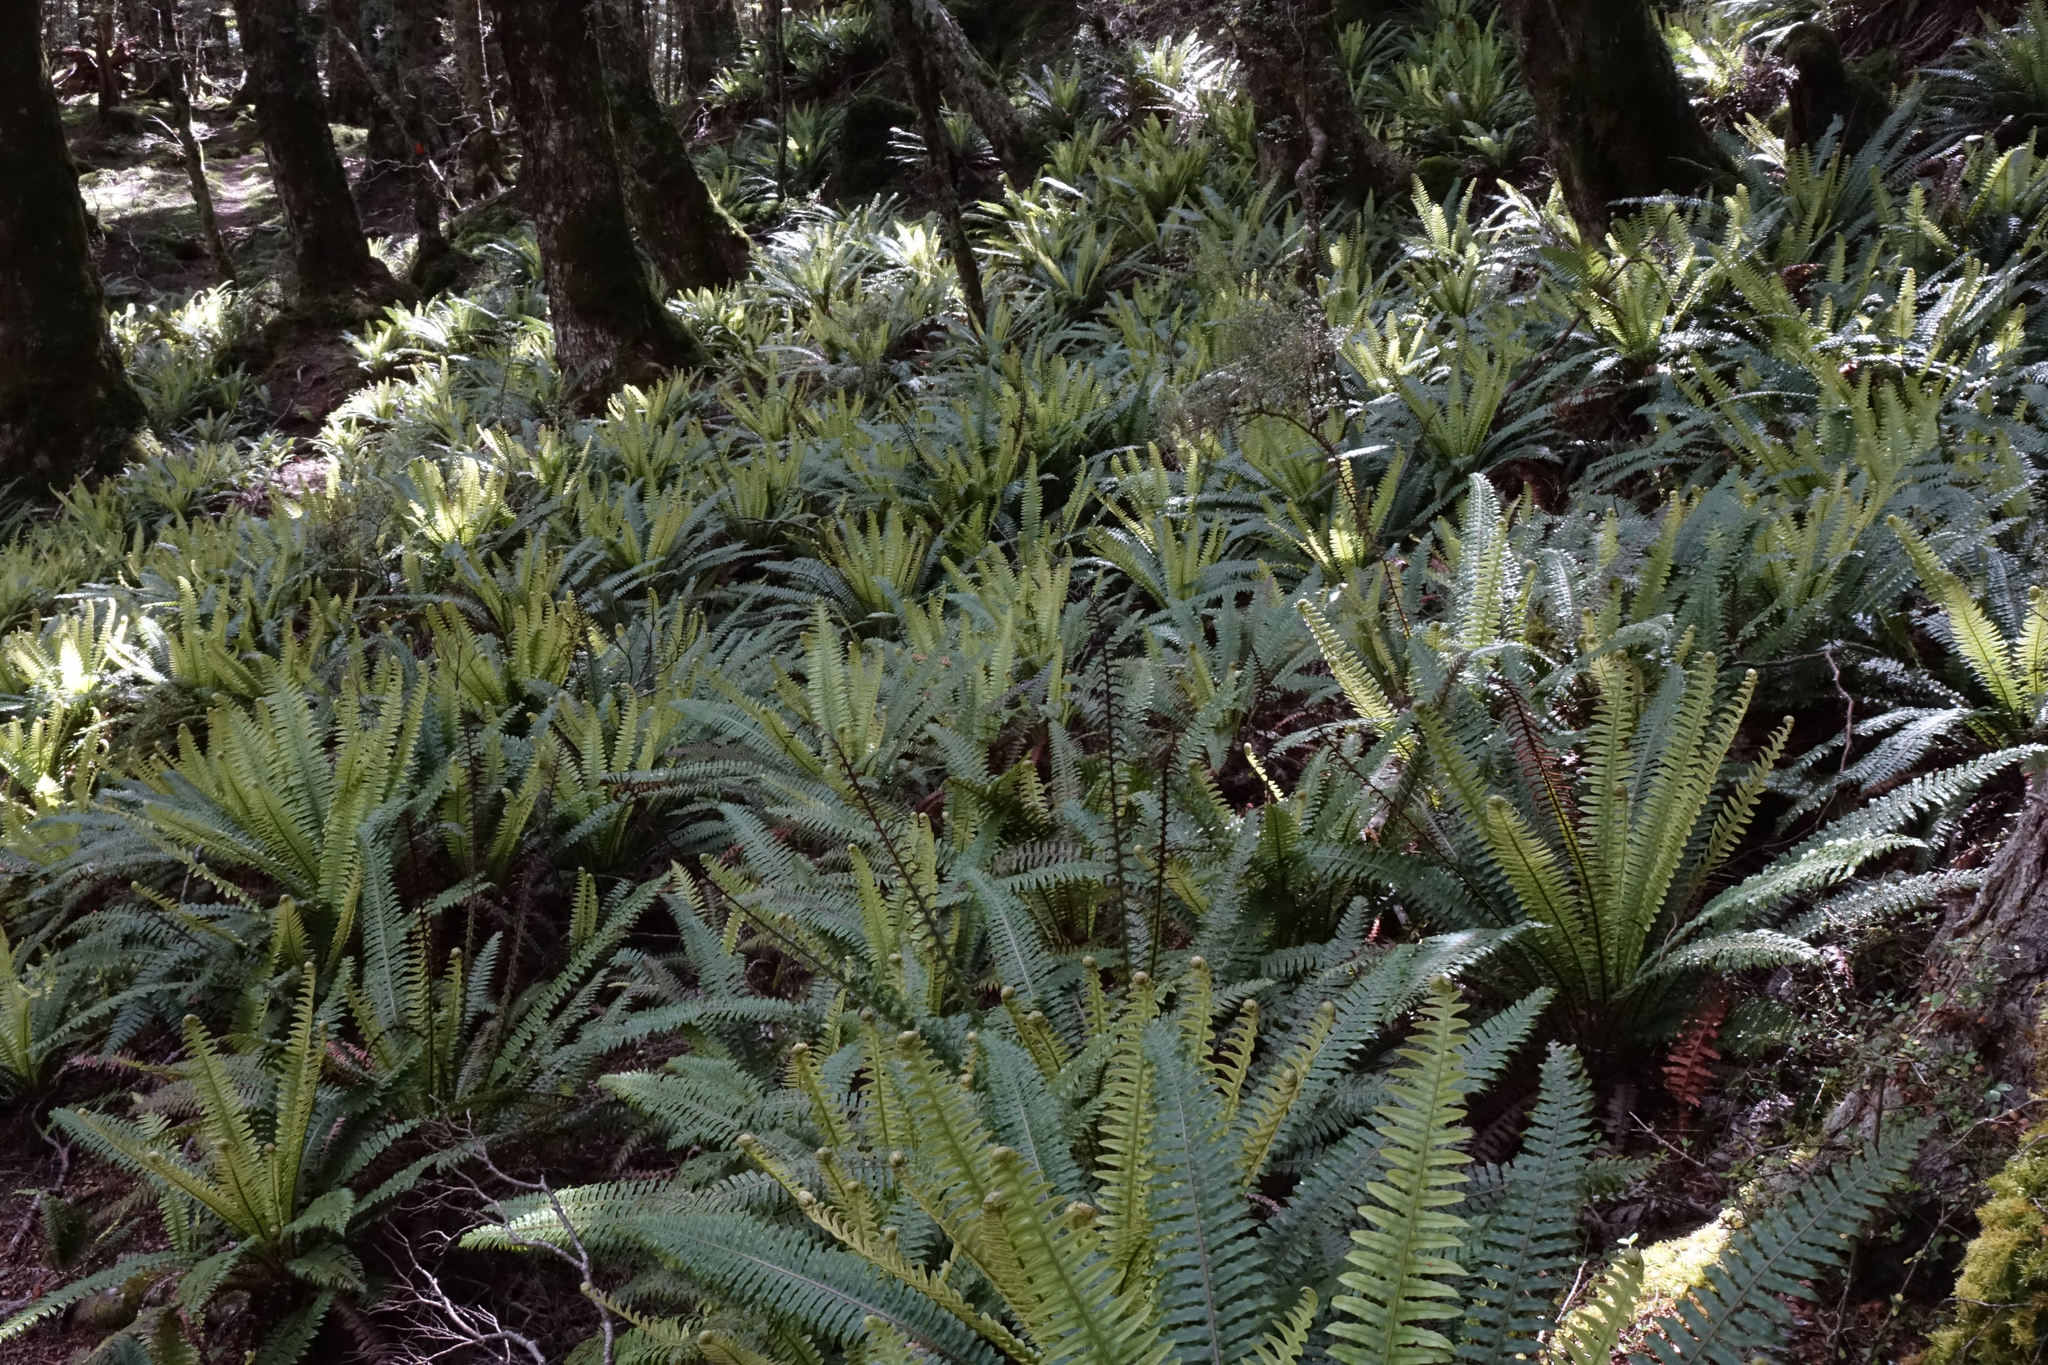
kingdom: Plantae
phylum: Tracheophyta
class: Polypodiopsida
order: Polypodiales
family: Blechnaceae
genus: Lomaria
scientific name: Lomaria discolor
